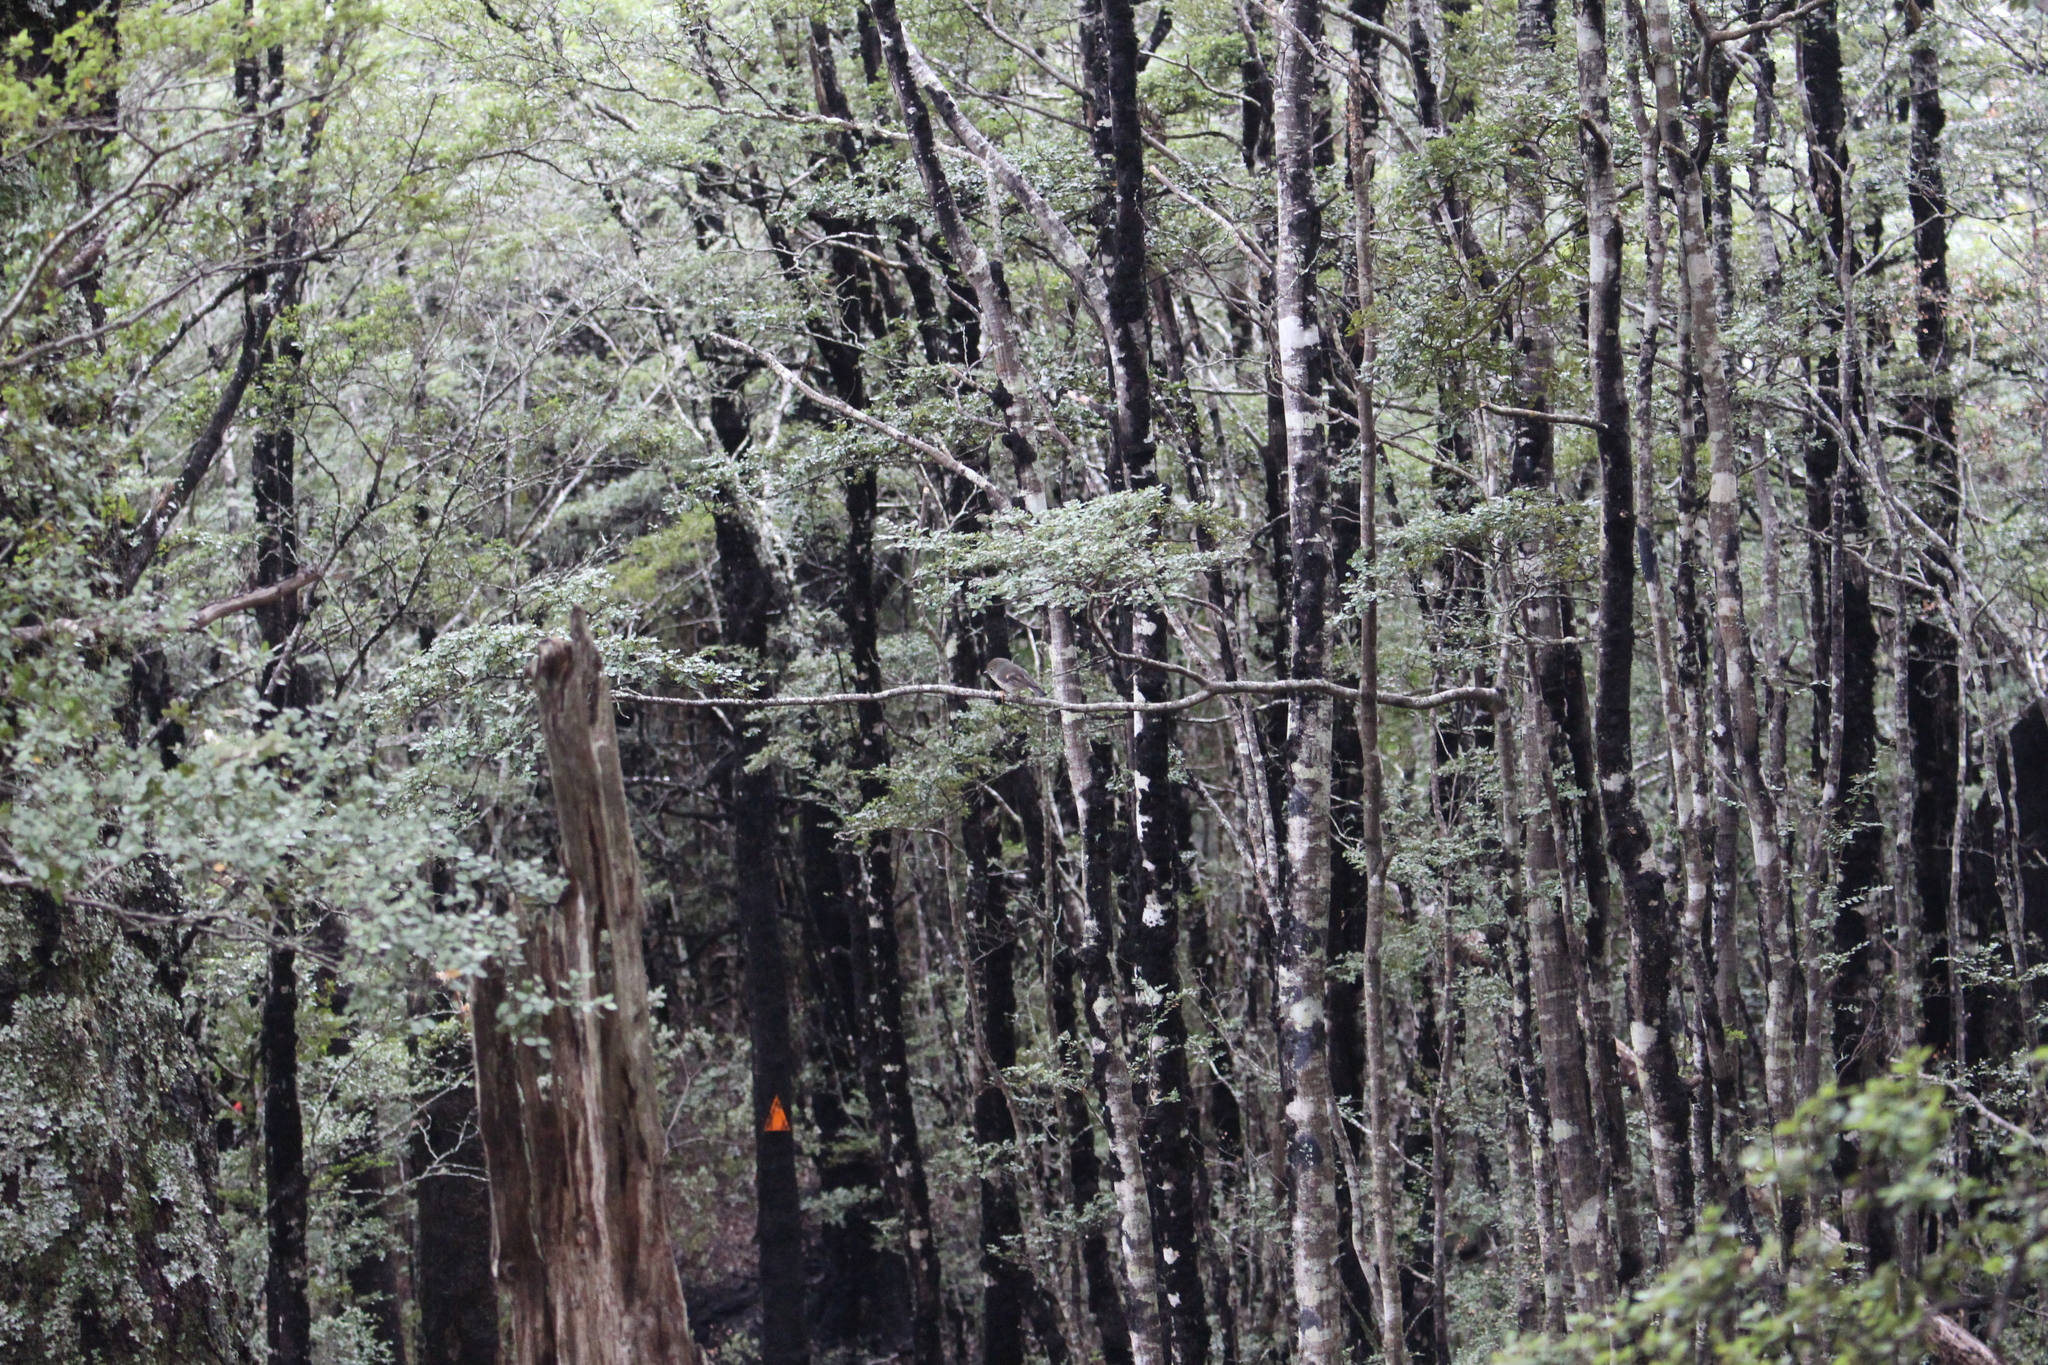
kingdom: Animalia
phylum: Chordata
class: Aves
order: Passeriformes
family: Petroicidae
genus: Petroica
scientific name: Petroica macrocephala
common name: Tomtit
